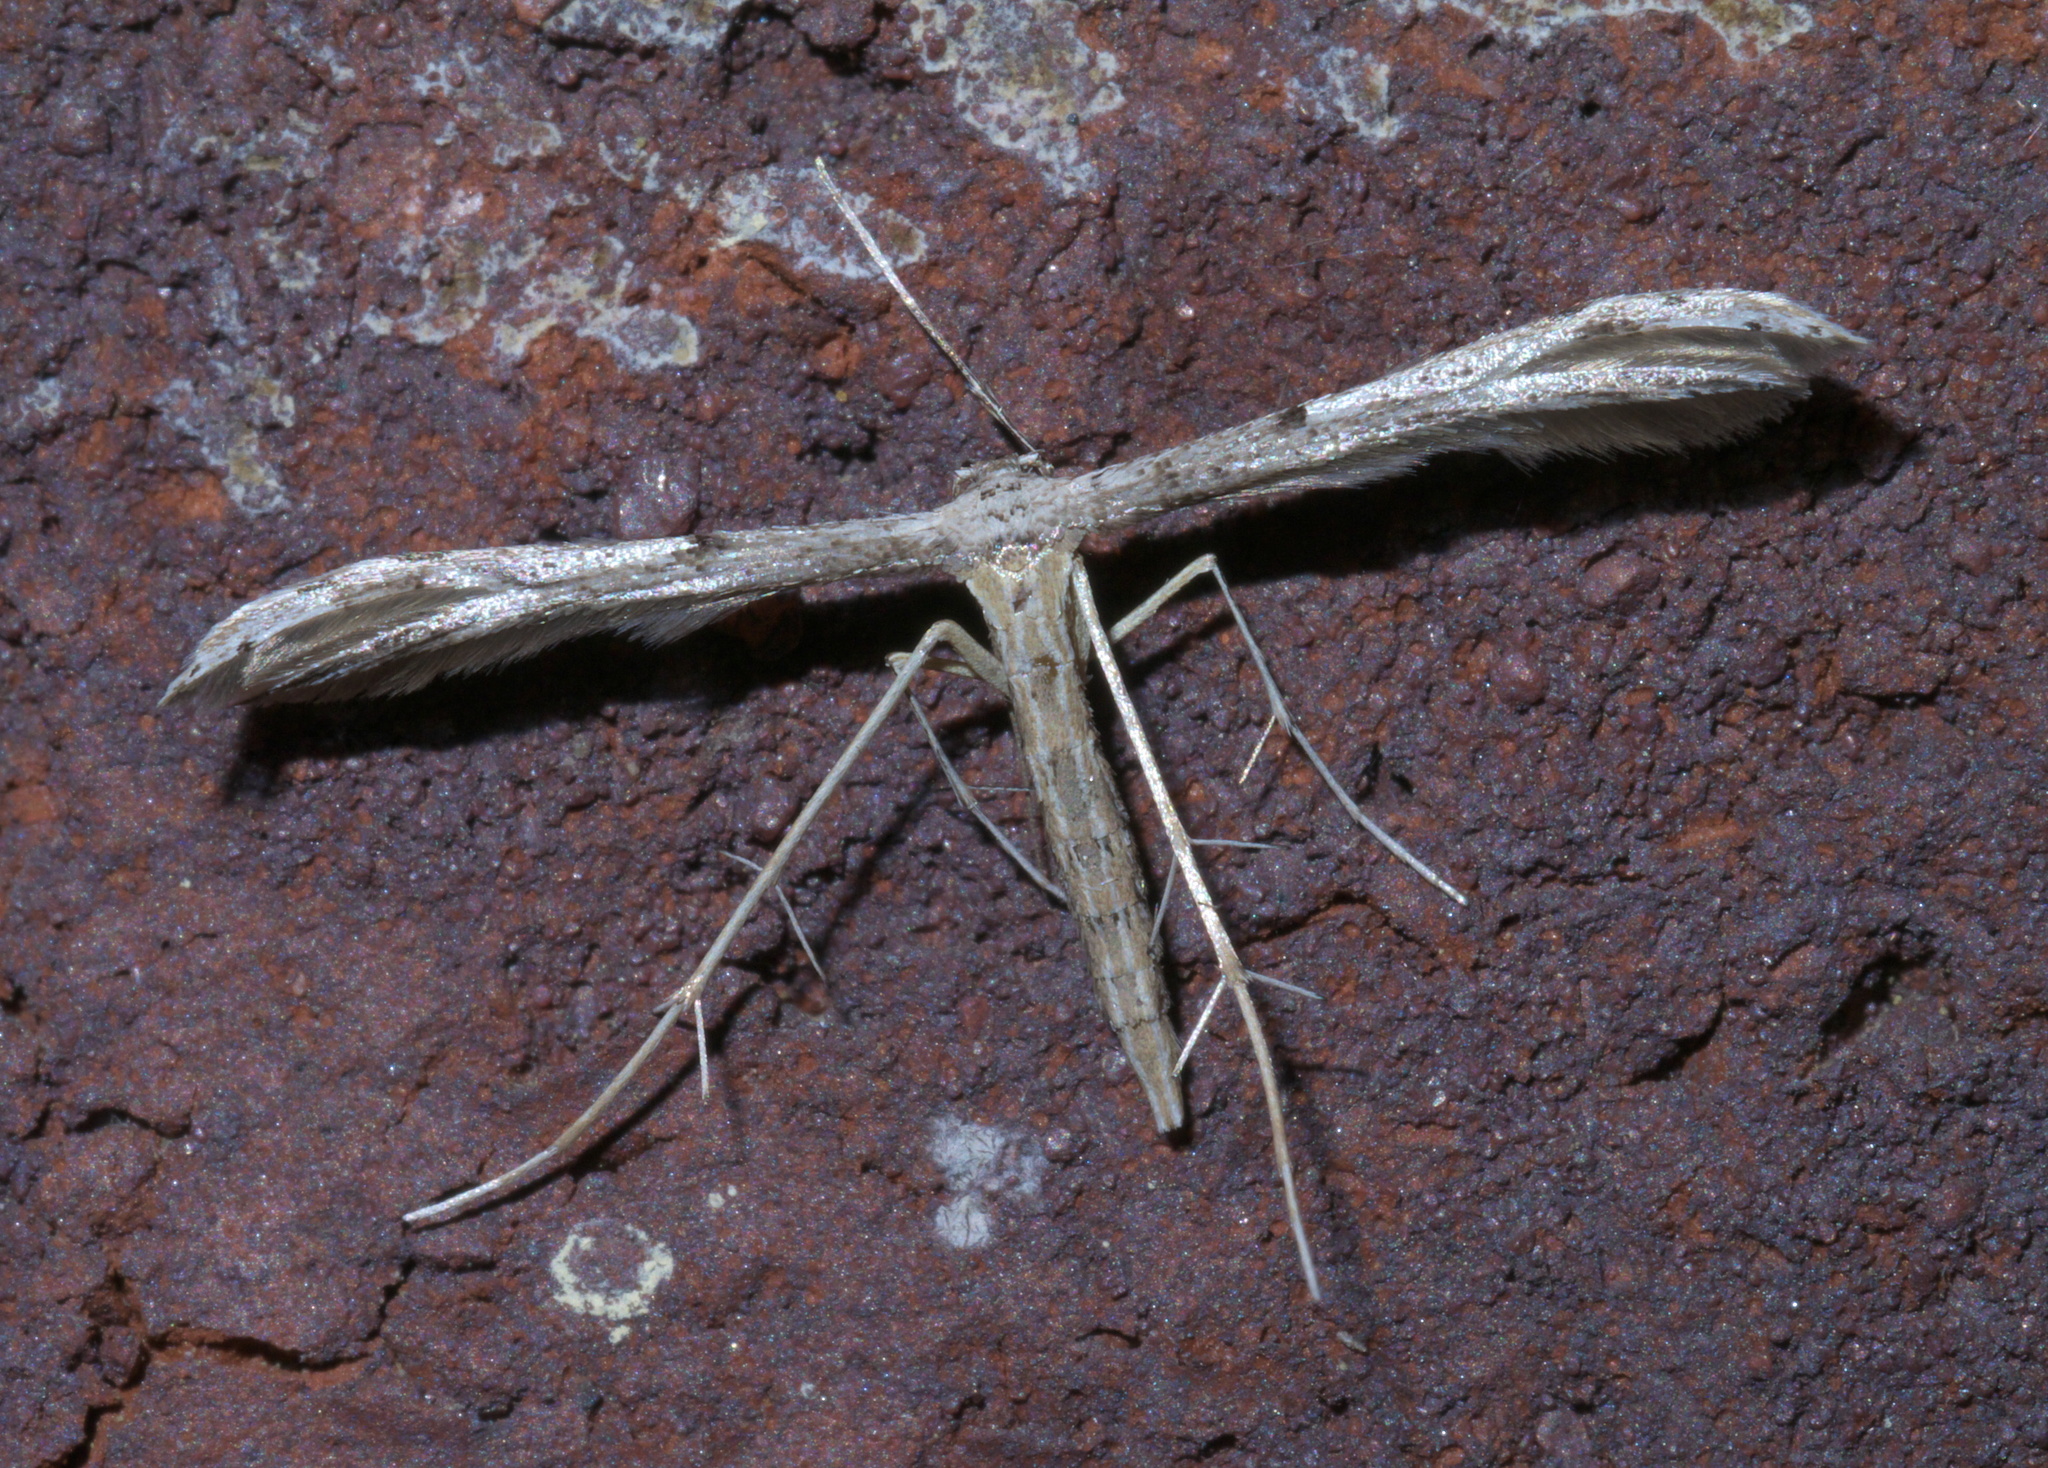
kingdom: Animalia
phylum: Arthropoda
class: Insecta
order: Lepidoptera
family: Pterophoridae
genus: Pselnophorus
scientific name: Pselnophorus belfragei
